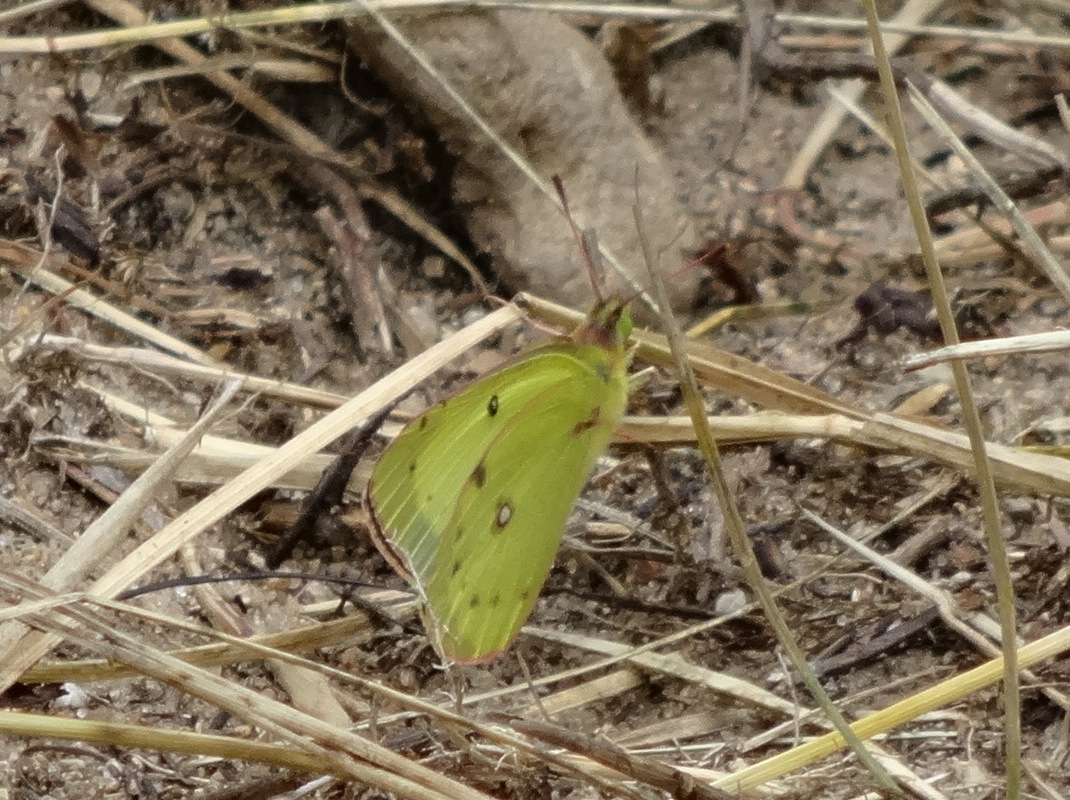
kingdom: Animalia
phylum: Arthropoda
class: Insecta
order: Lepidoptera
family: Pieridae
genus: Colias
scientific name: Colias philodice
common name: Clouded sulphur
